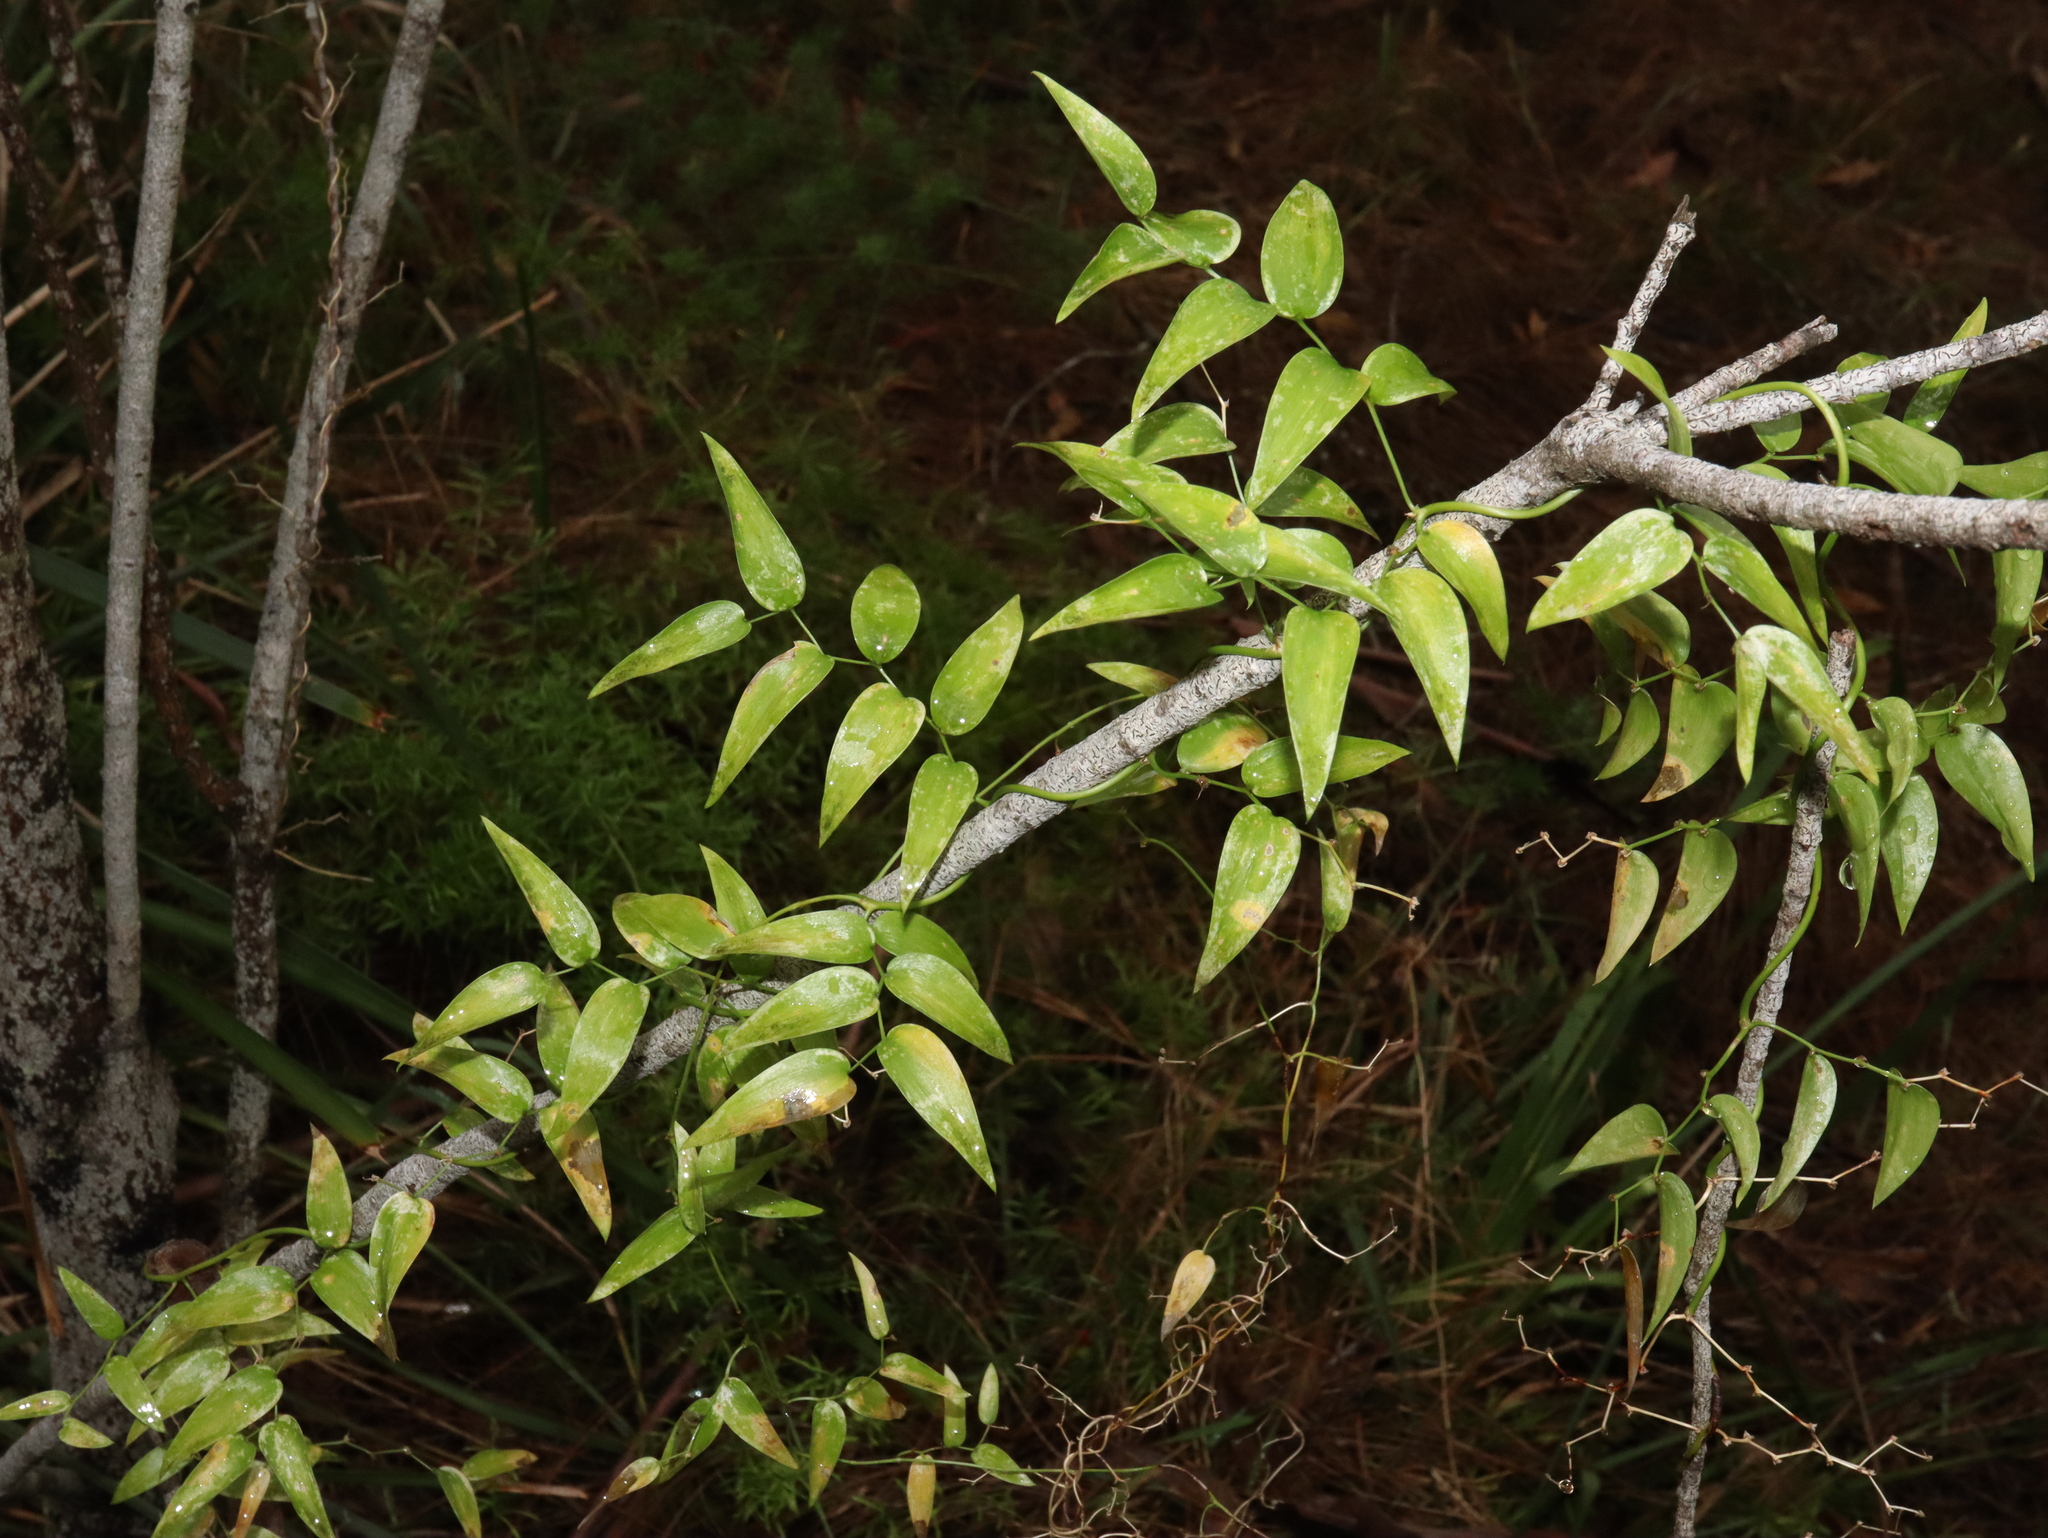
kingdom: Plantae
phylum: Tracheophyta
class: Liliopsida
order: Asparagales
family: Asparagaceae
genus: Asparagus
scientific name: Asparagus asparagoides
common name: African asparagus fern
